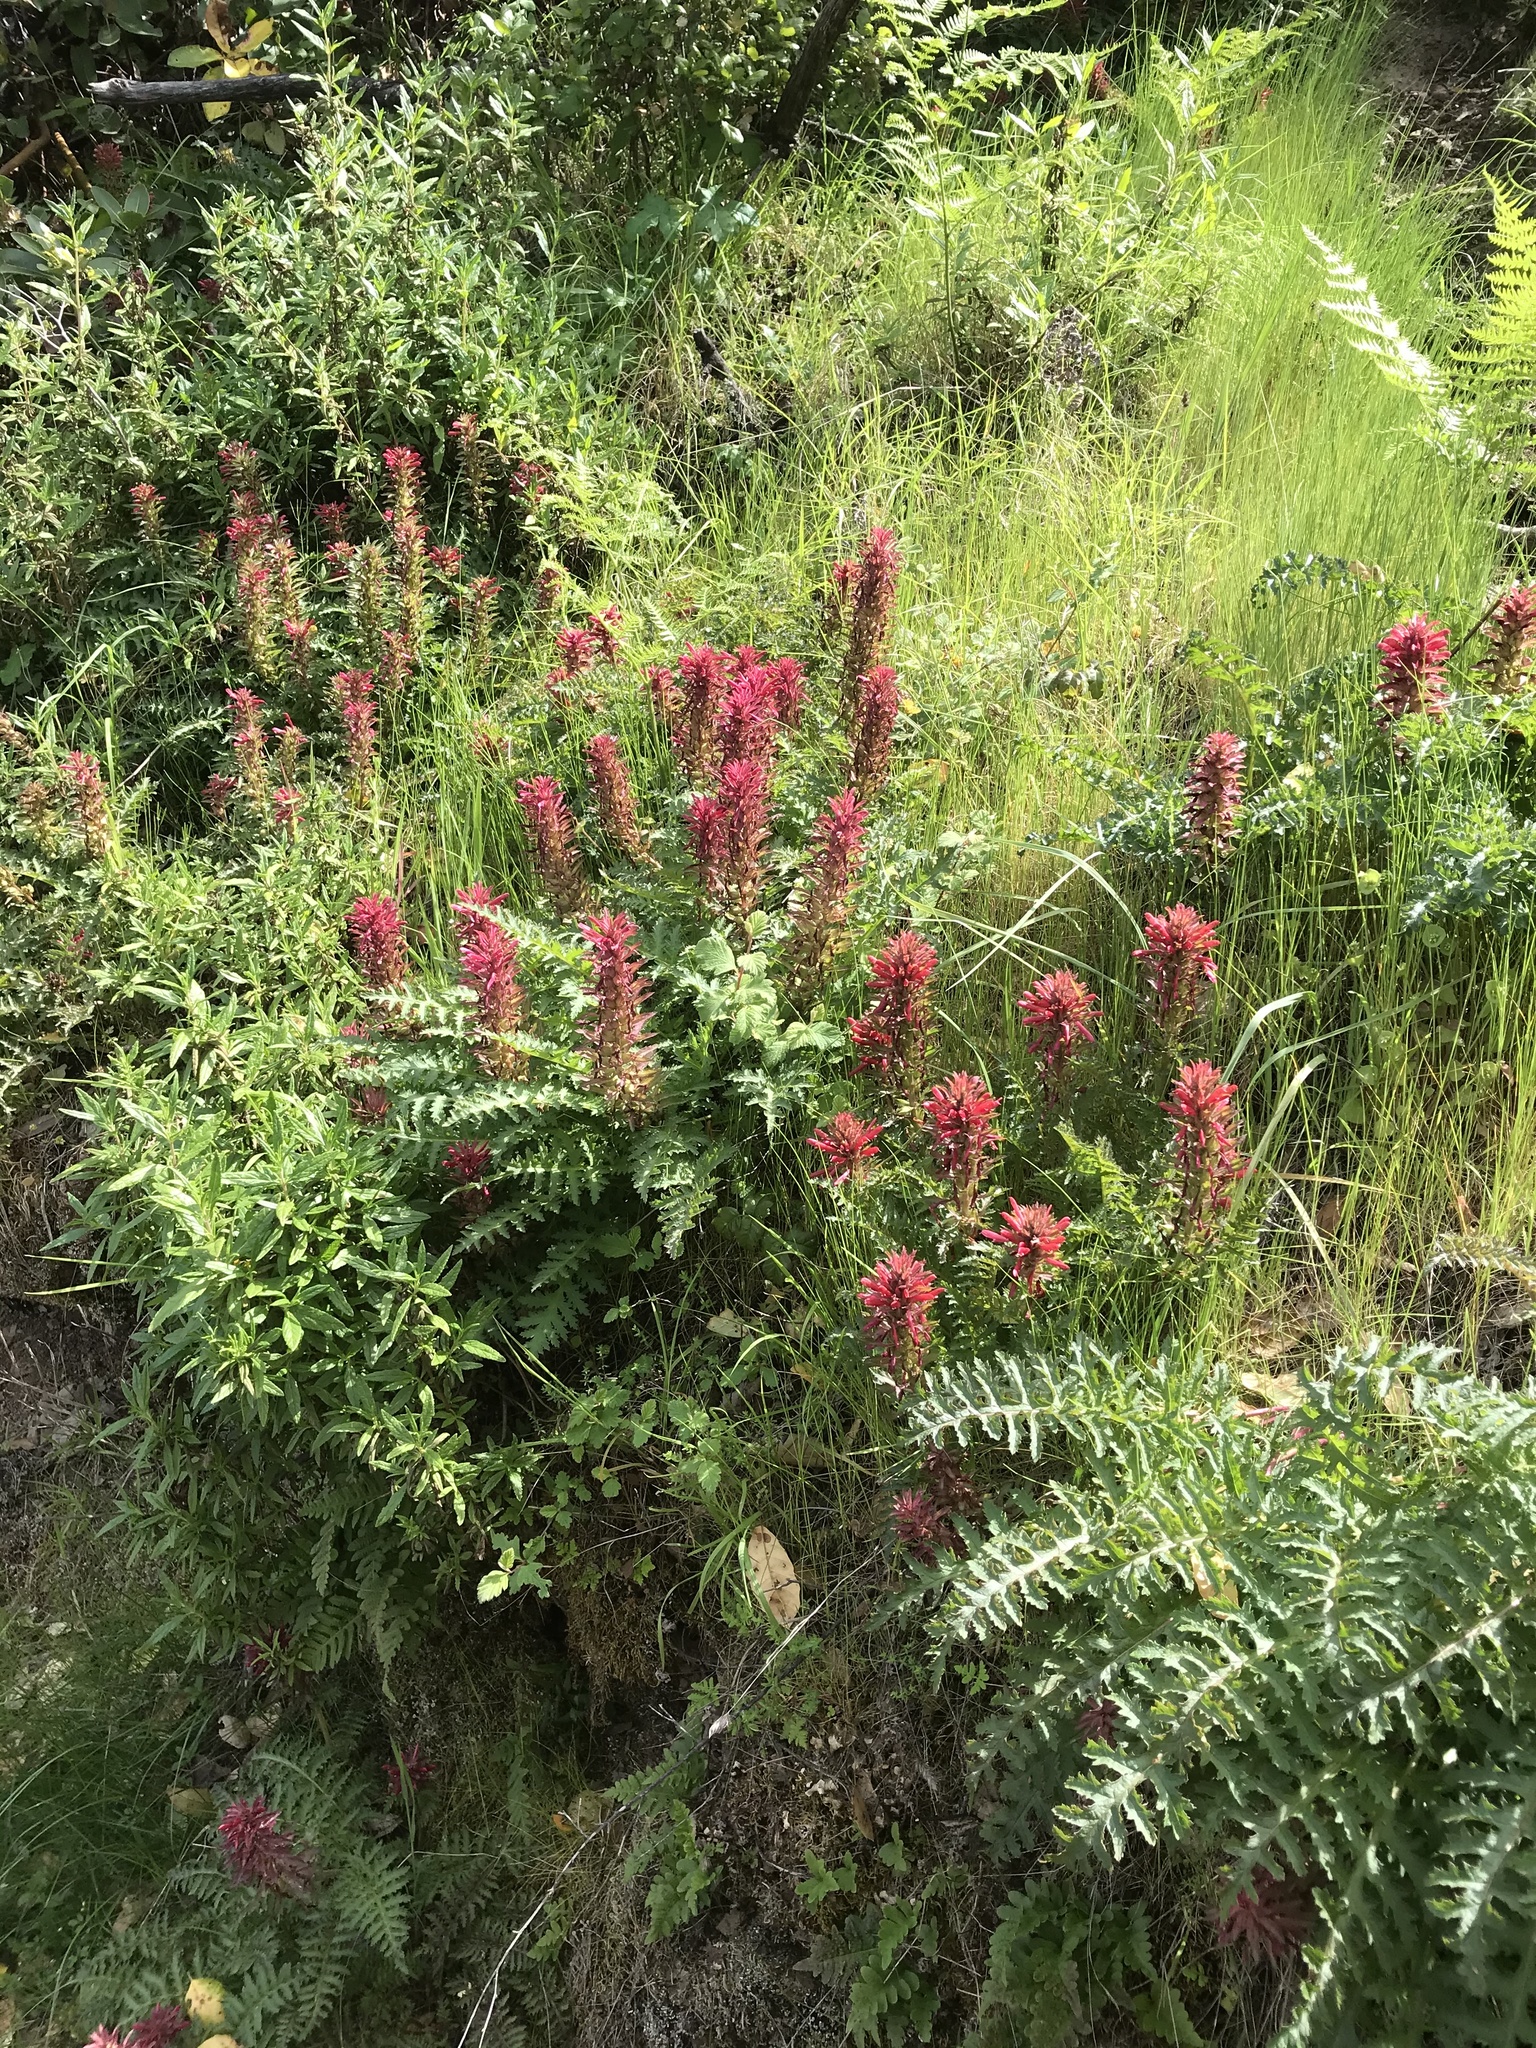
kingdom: Plantae
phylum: Tracheophyta
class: Magnoliopsida
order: Lamiales
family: Orobanchaceae
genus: Pedicularis
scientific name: Pedicularis densiflora
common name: Indian warrior
